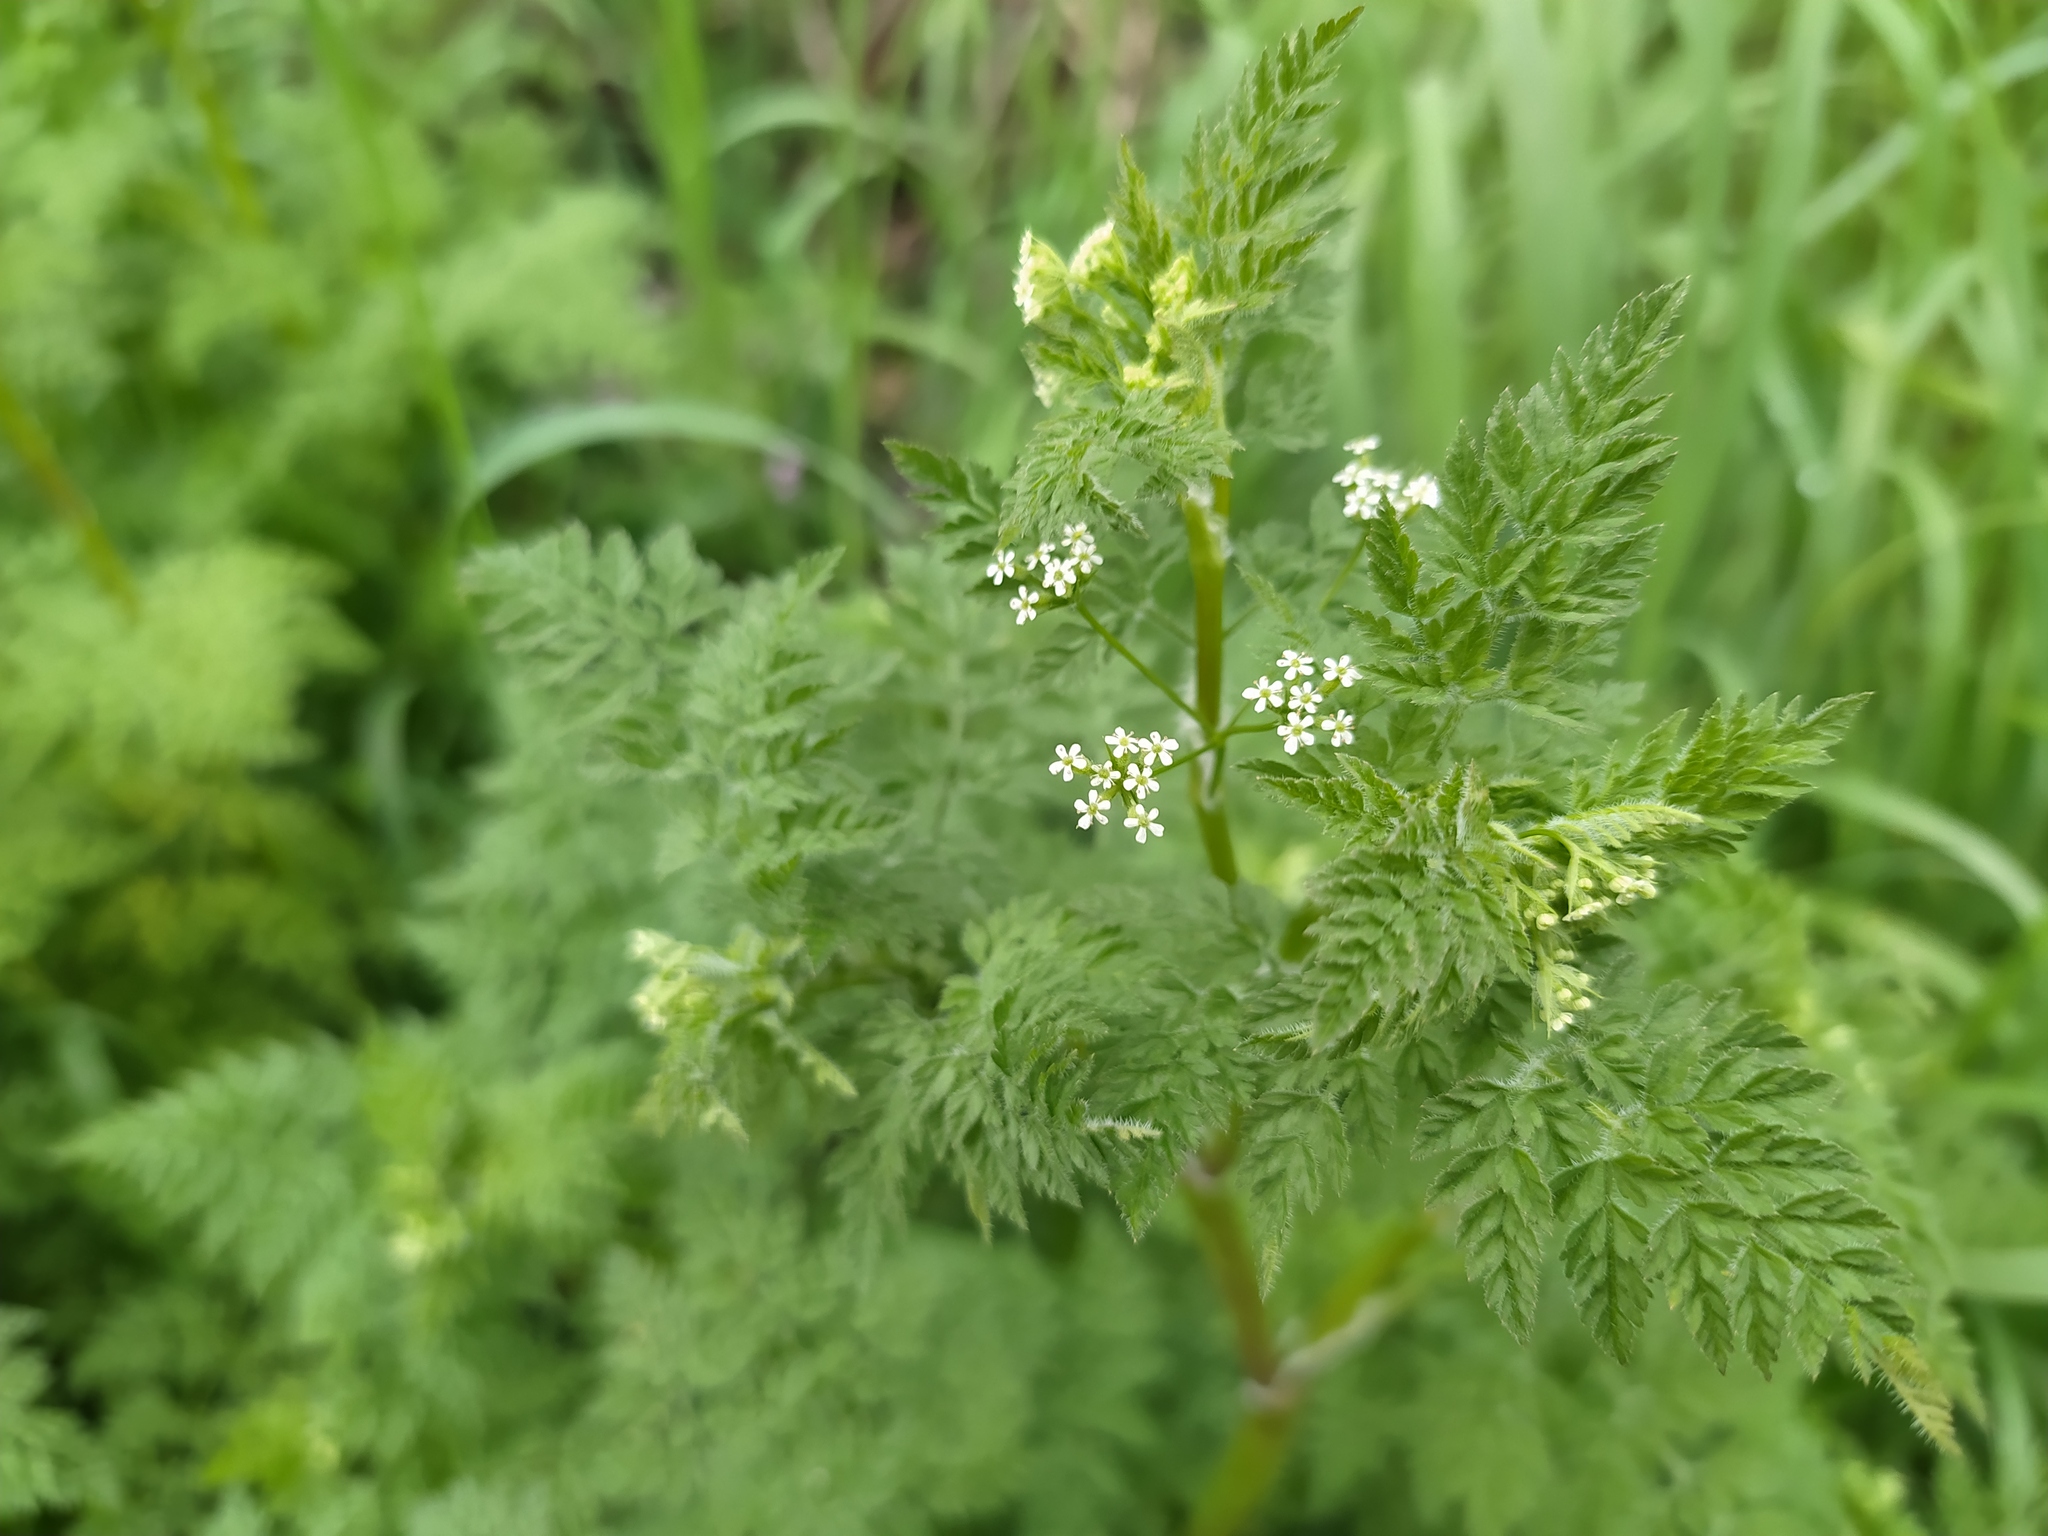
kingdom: Plantae
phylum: Tracheophyta
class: Magnoliopsida
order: Apiales
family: Apiaceae
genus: Anthriscus
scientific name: Anthriscus caucalis
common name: Bur chervil
